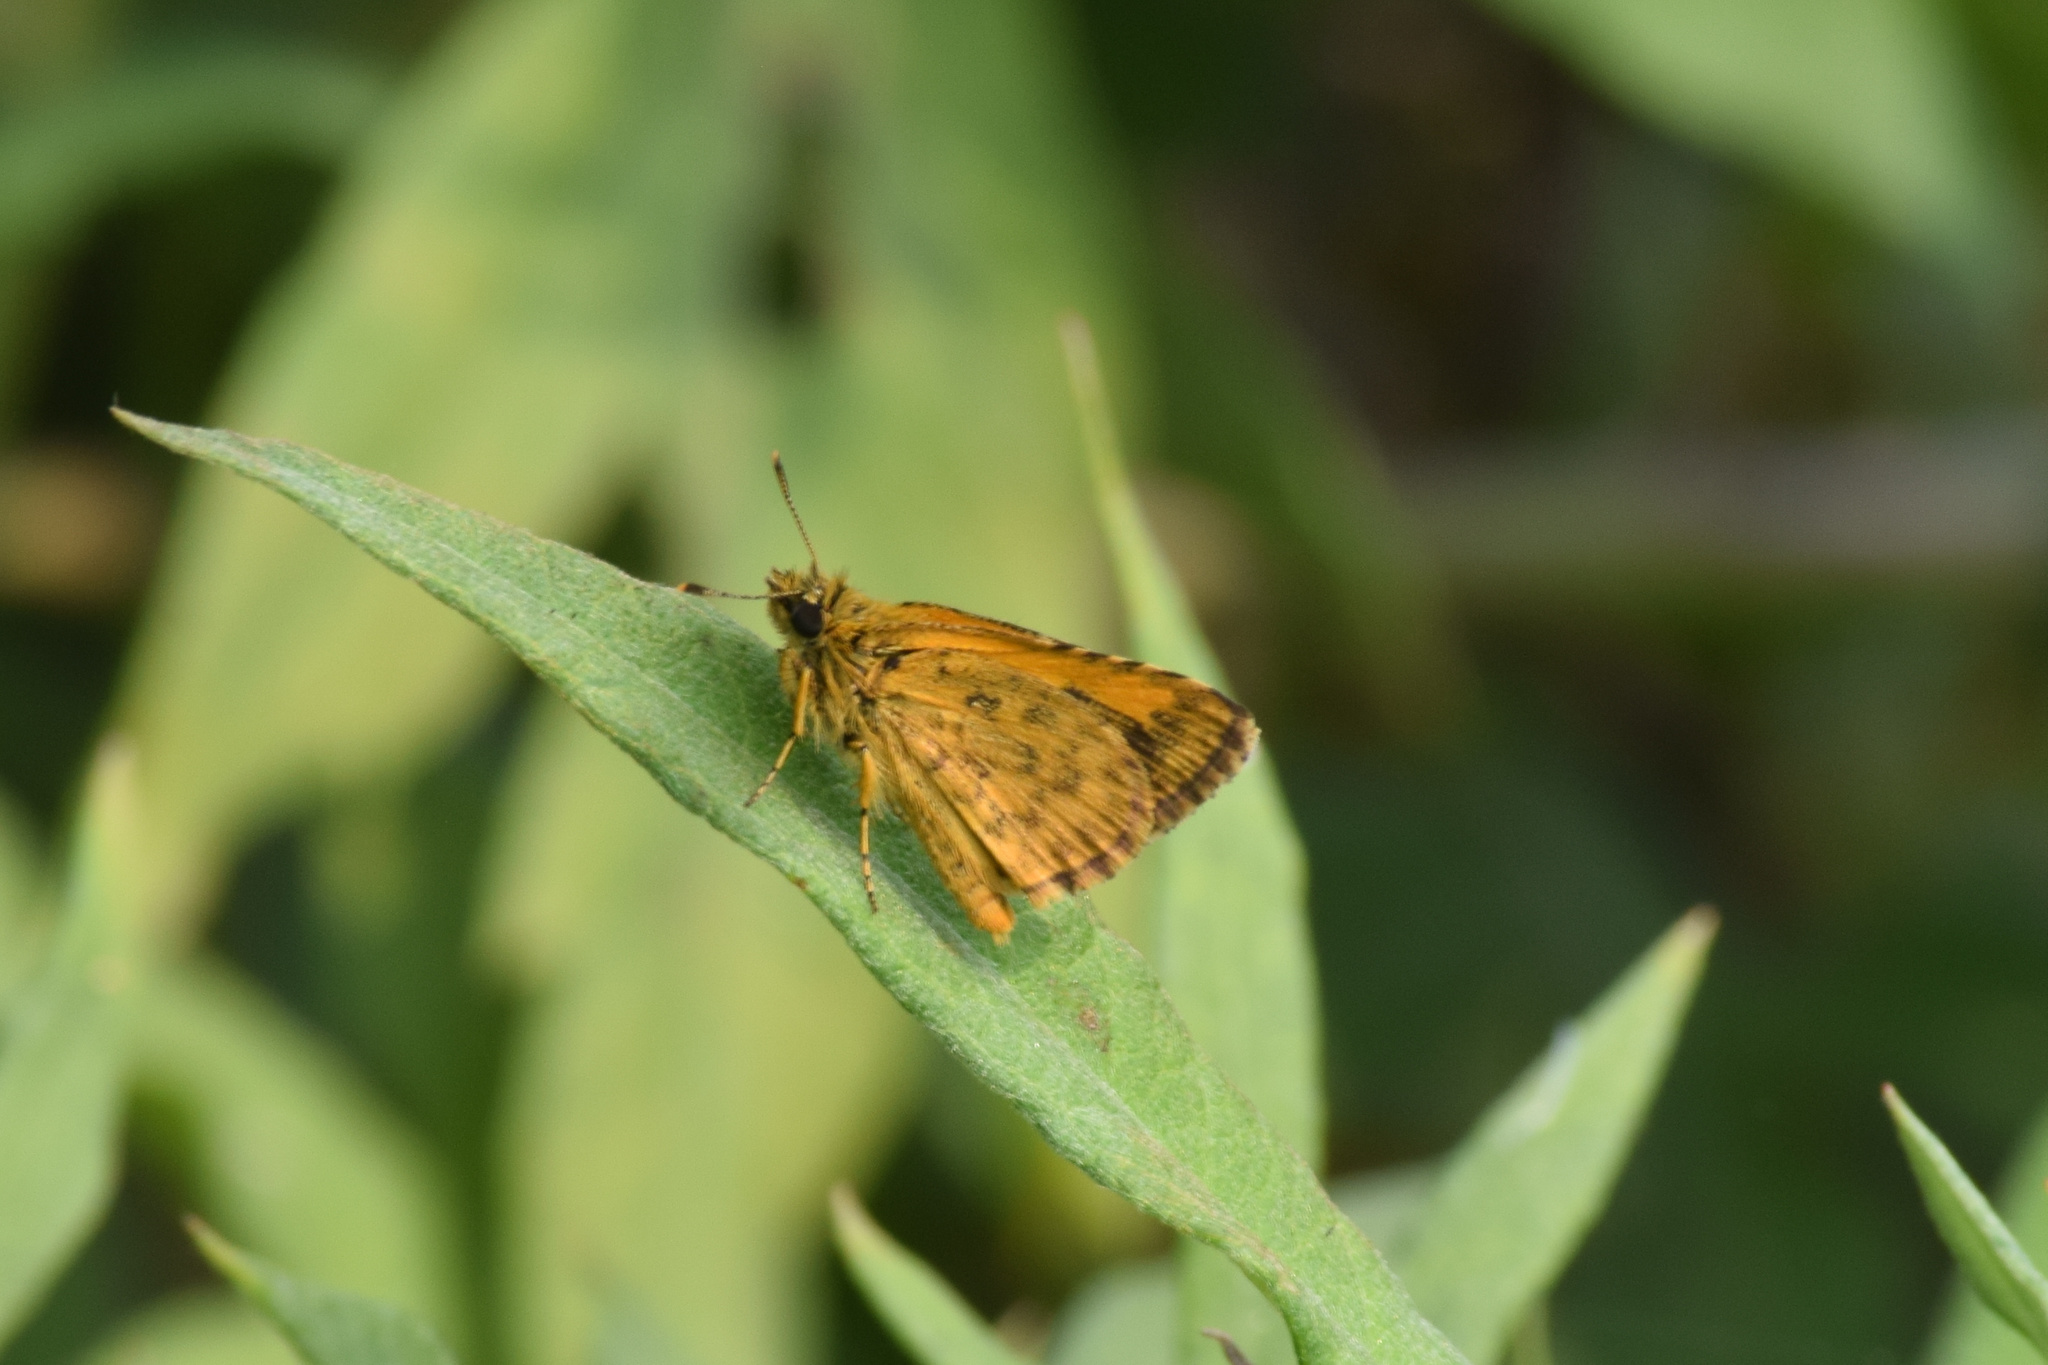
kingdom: Animalia
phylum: Arthropoda
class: Insecta
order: Lepidoptera
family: Hesperiidae
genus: Ampittia
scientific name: Ampittia dioscorides
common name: Common bush hopper
